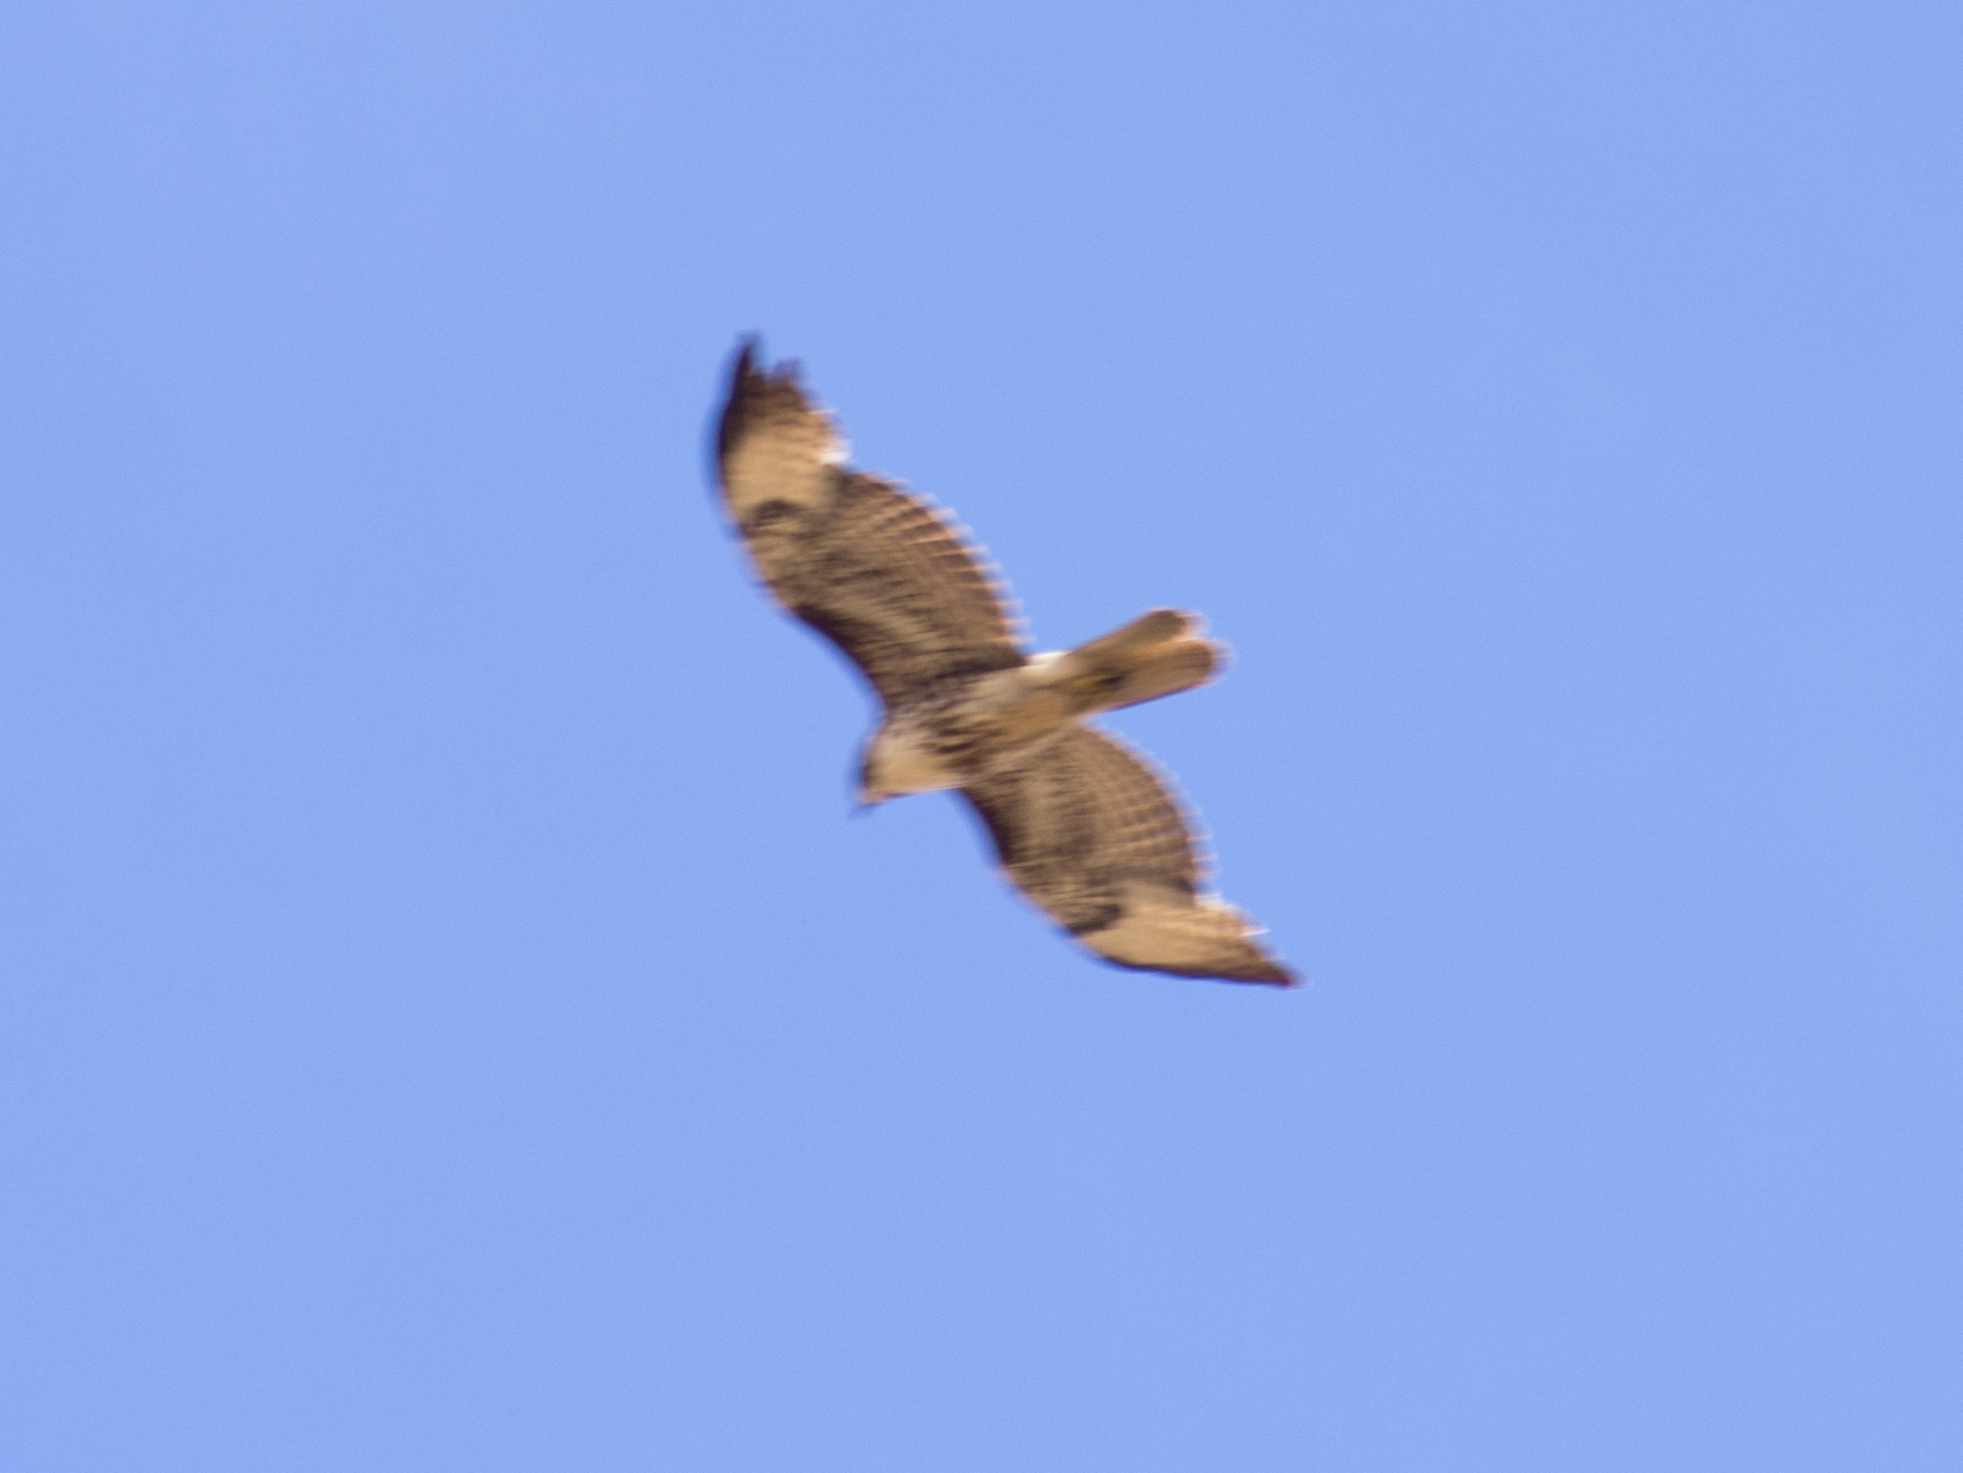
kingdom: Animalia
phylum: Chordata
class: Aves
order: Accipitriformes
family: Accipitridae
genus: Buteo
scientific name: Buteo jamaicensis
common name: Red-tailed hawk
